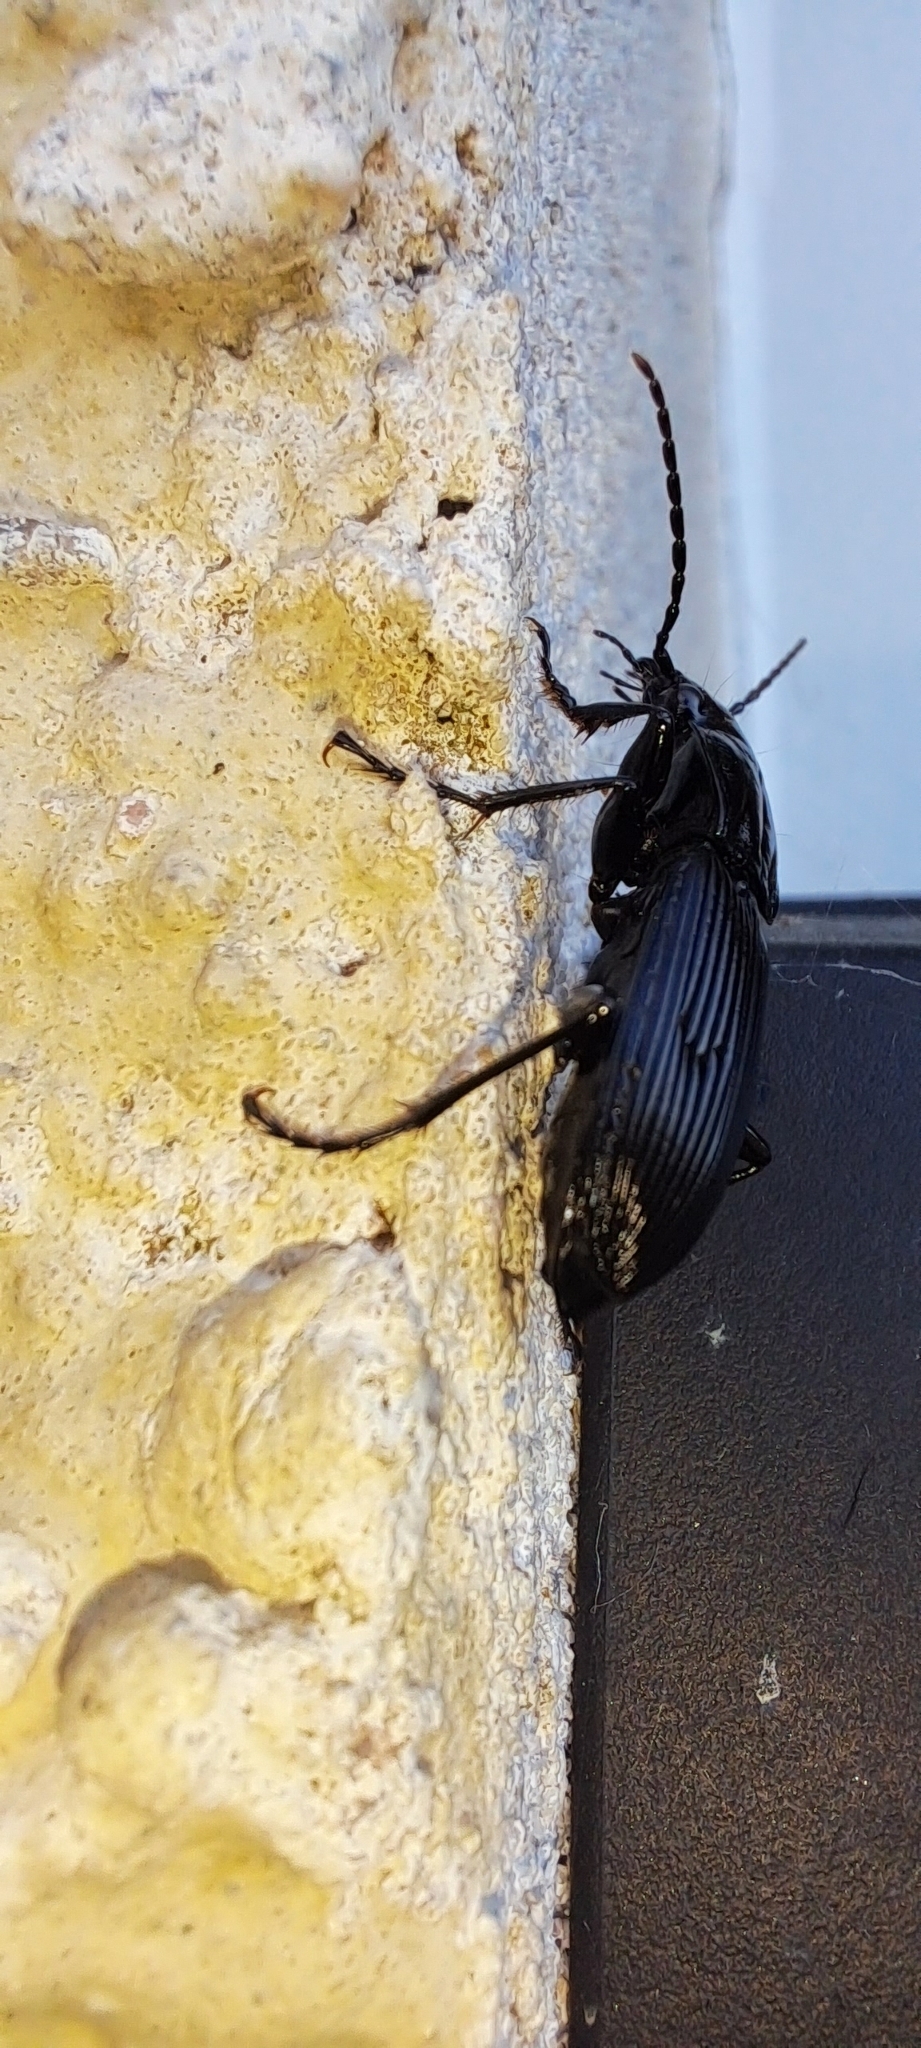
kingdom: Animalia
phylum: Arthropoda
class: Insecta
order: Coleoptera
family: Carabidae
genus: Pterostichus
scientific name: Pterostichus niger
